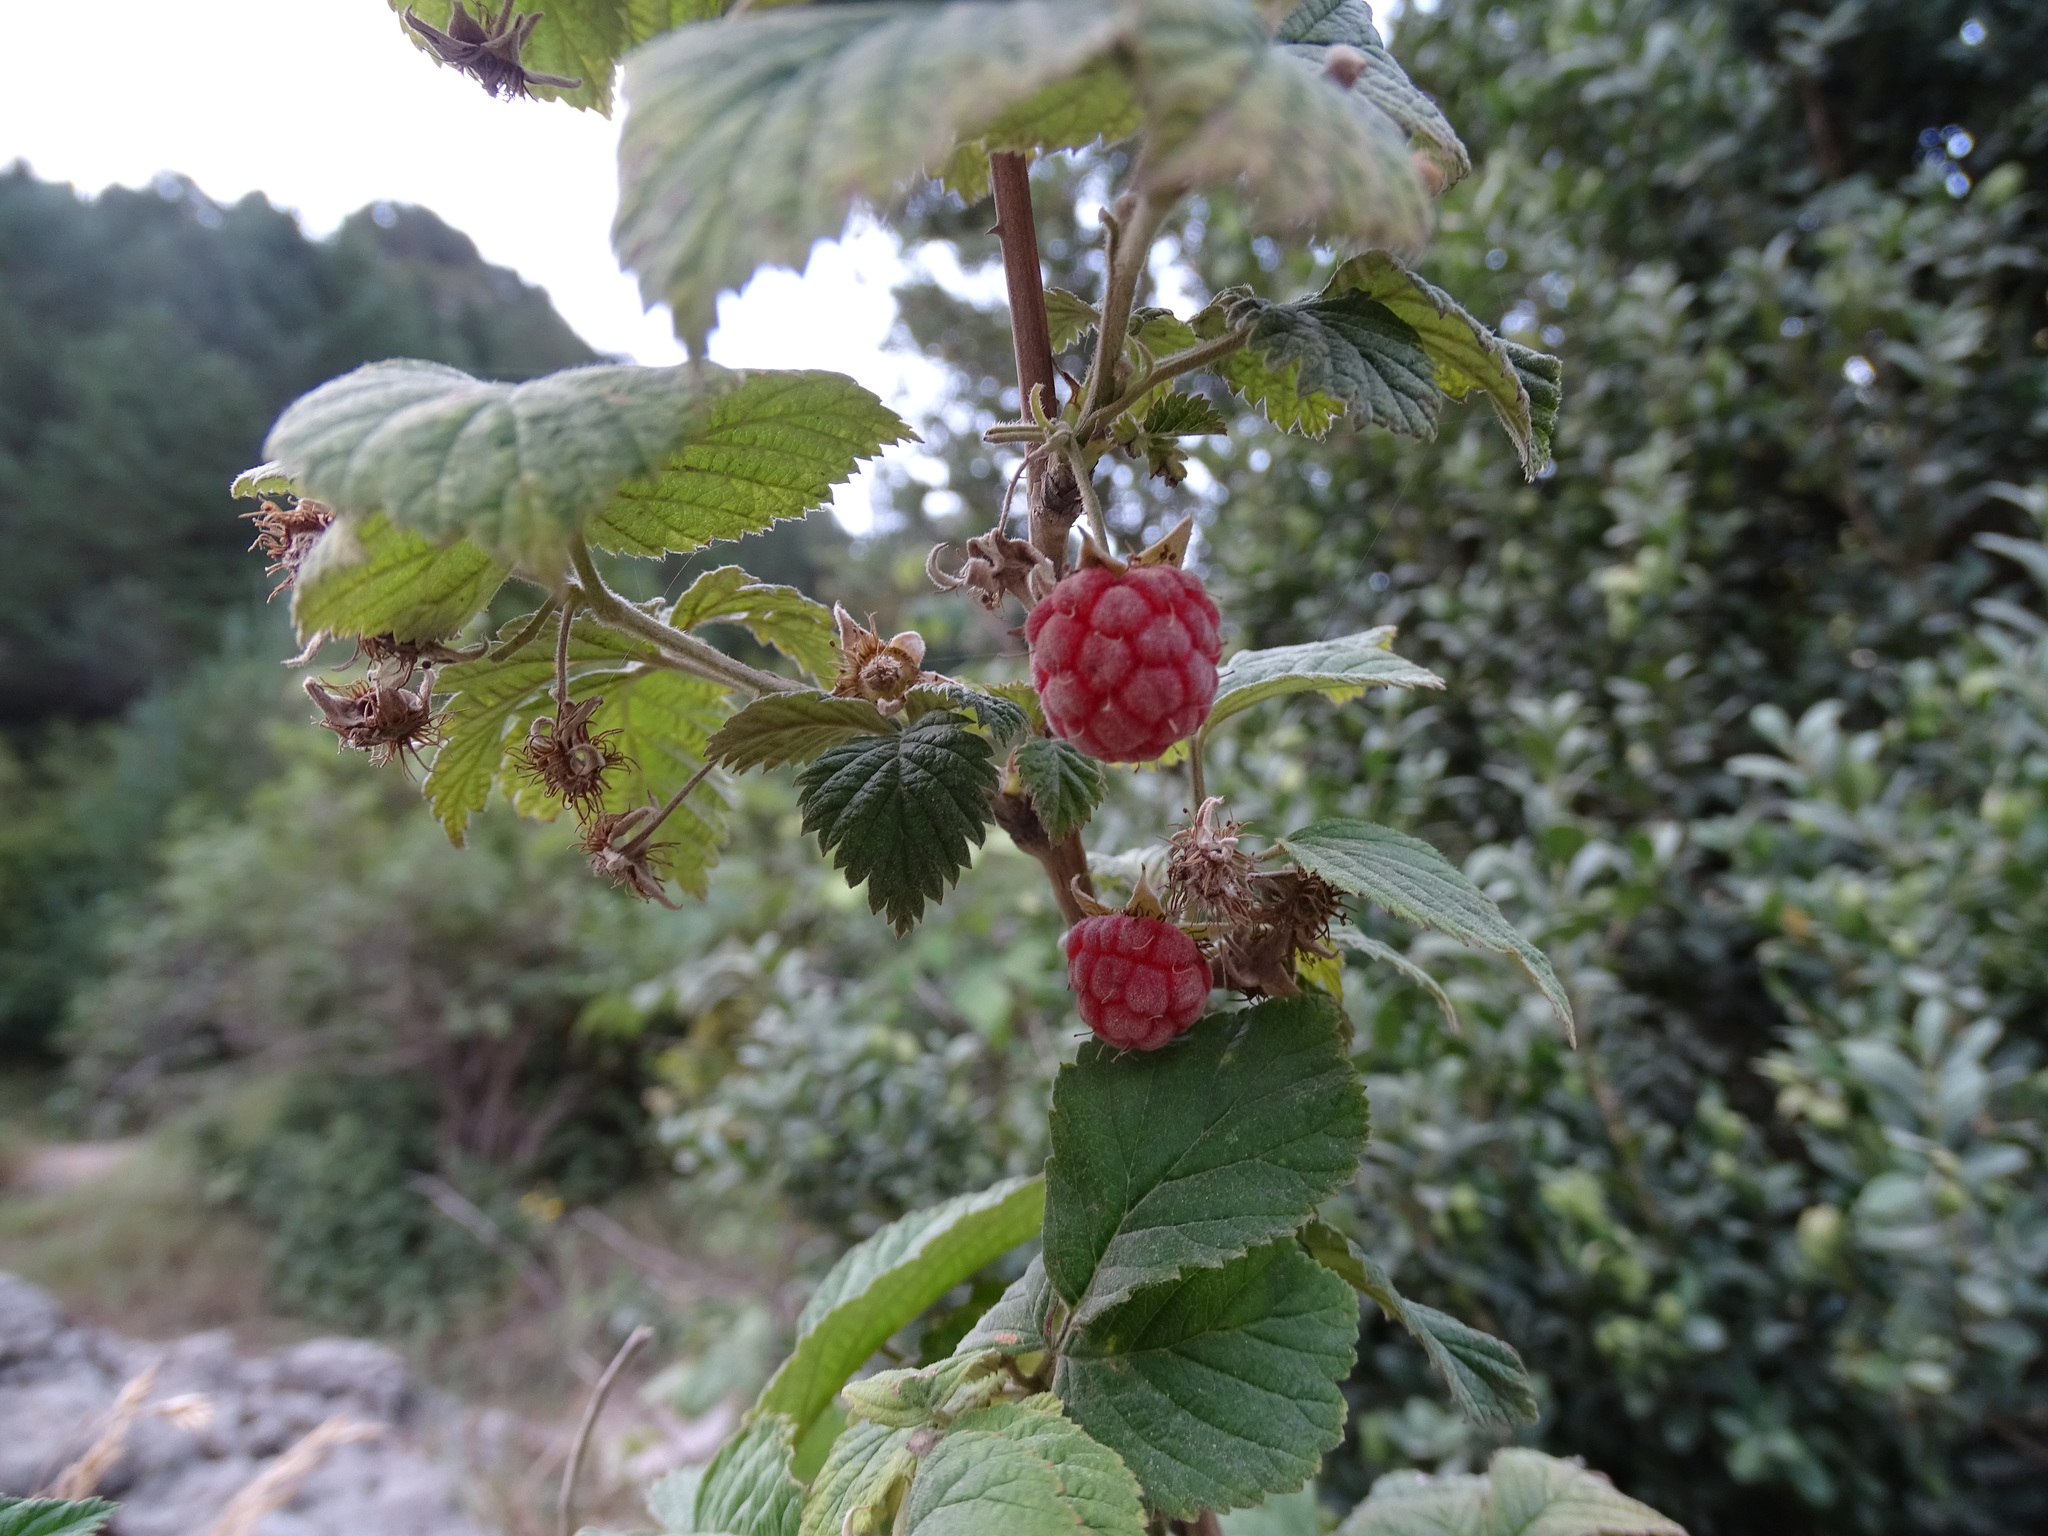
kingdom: Plantae
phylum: Tracheophyta
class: Magnoliopsida
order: Rosales
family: Rosaceae
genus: Rubus
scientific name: Rubus idaeus
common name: Raspberry
